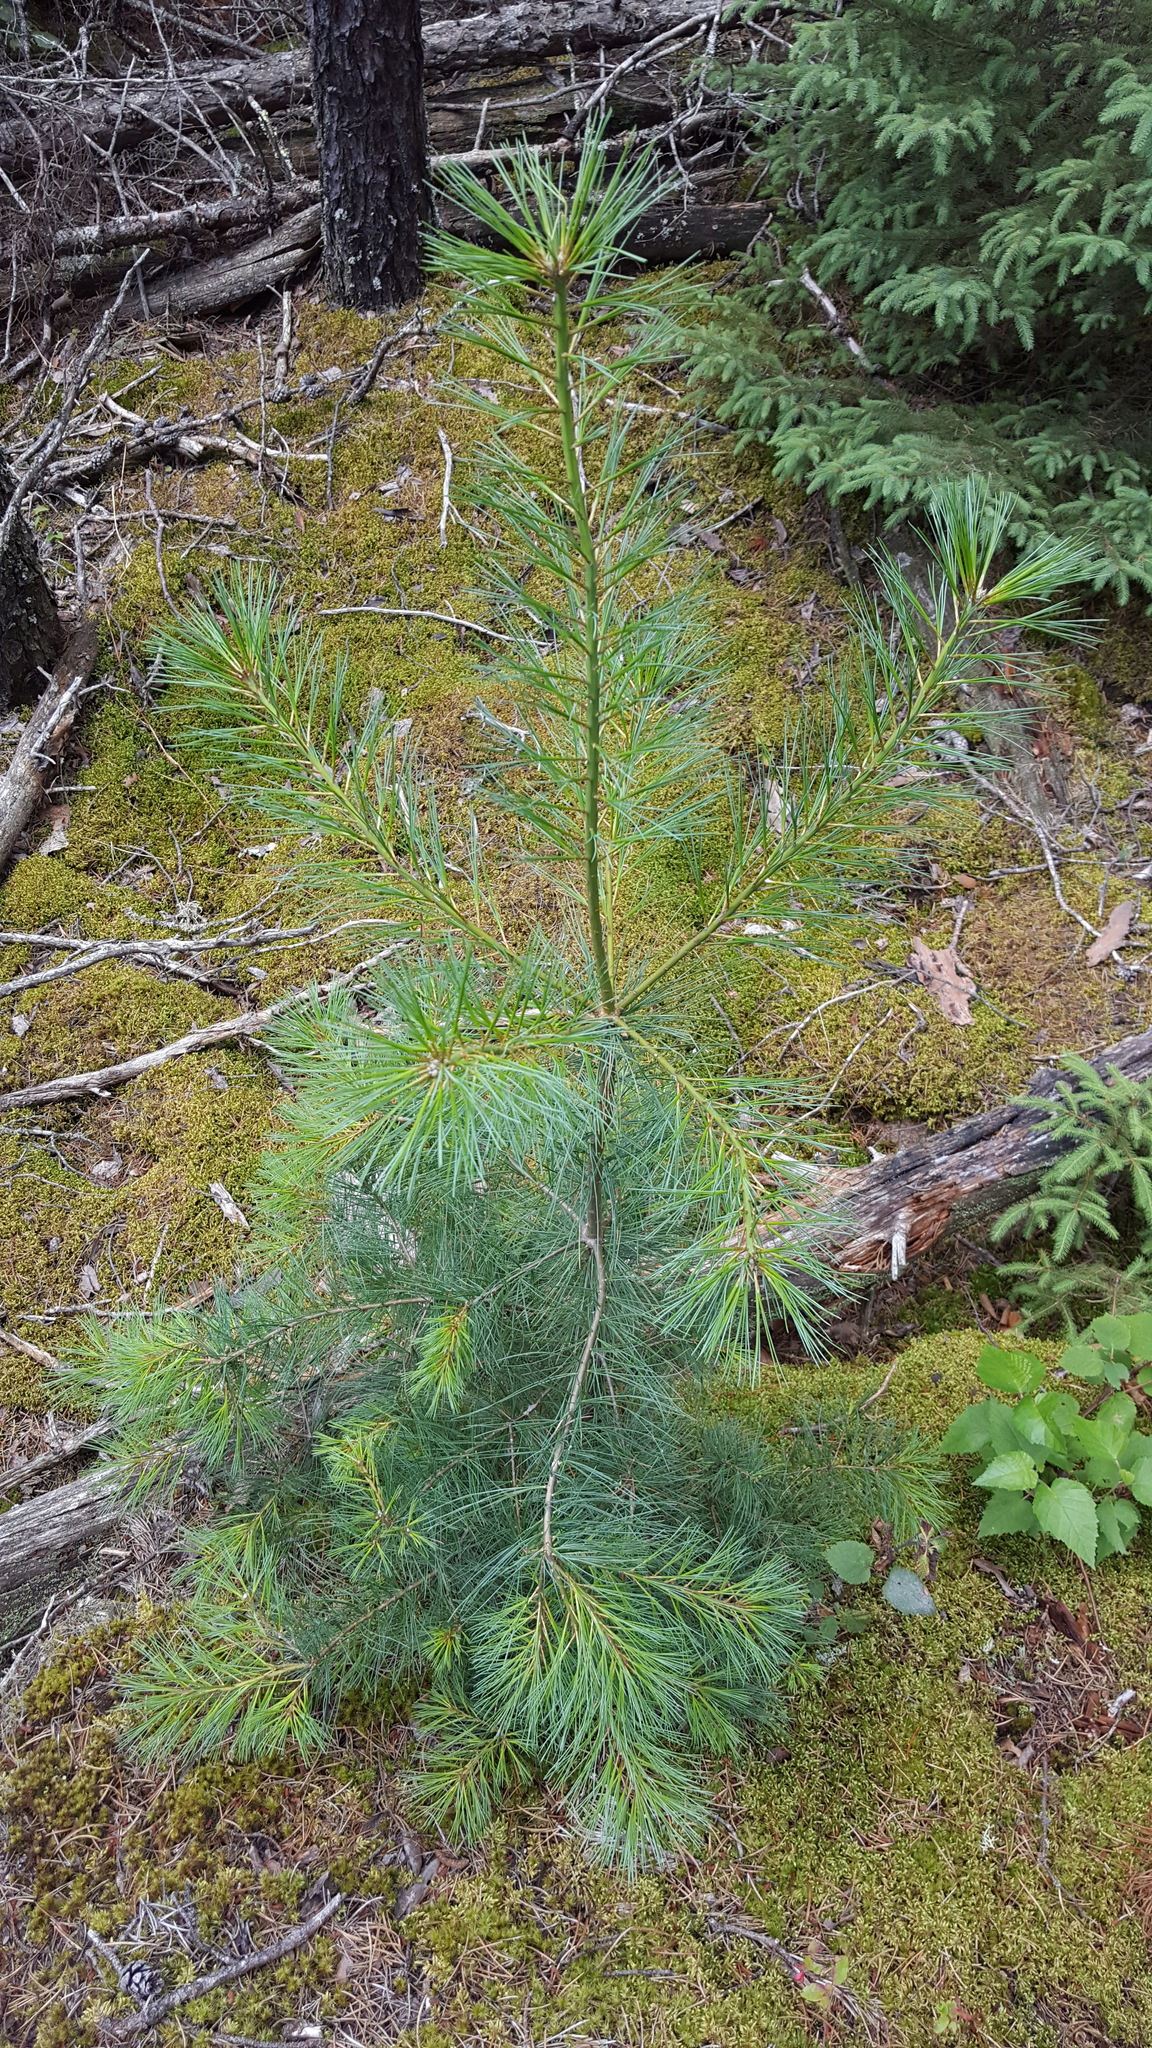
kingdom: Plantae
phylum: Tracheophyta
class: Pinopsida
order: Pinales
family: Pinaceae
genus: Pinus
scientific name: Pinus strobus
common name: Weymouth pine
